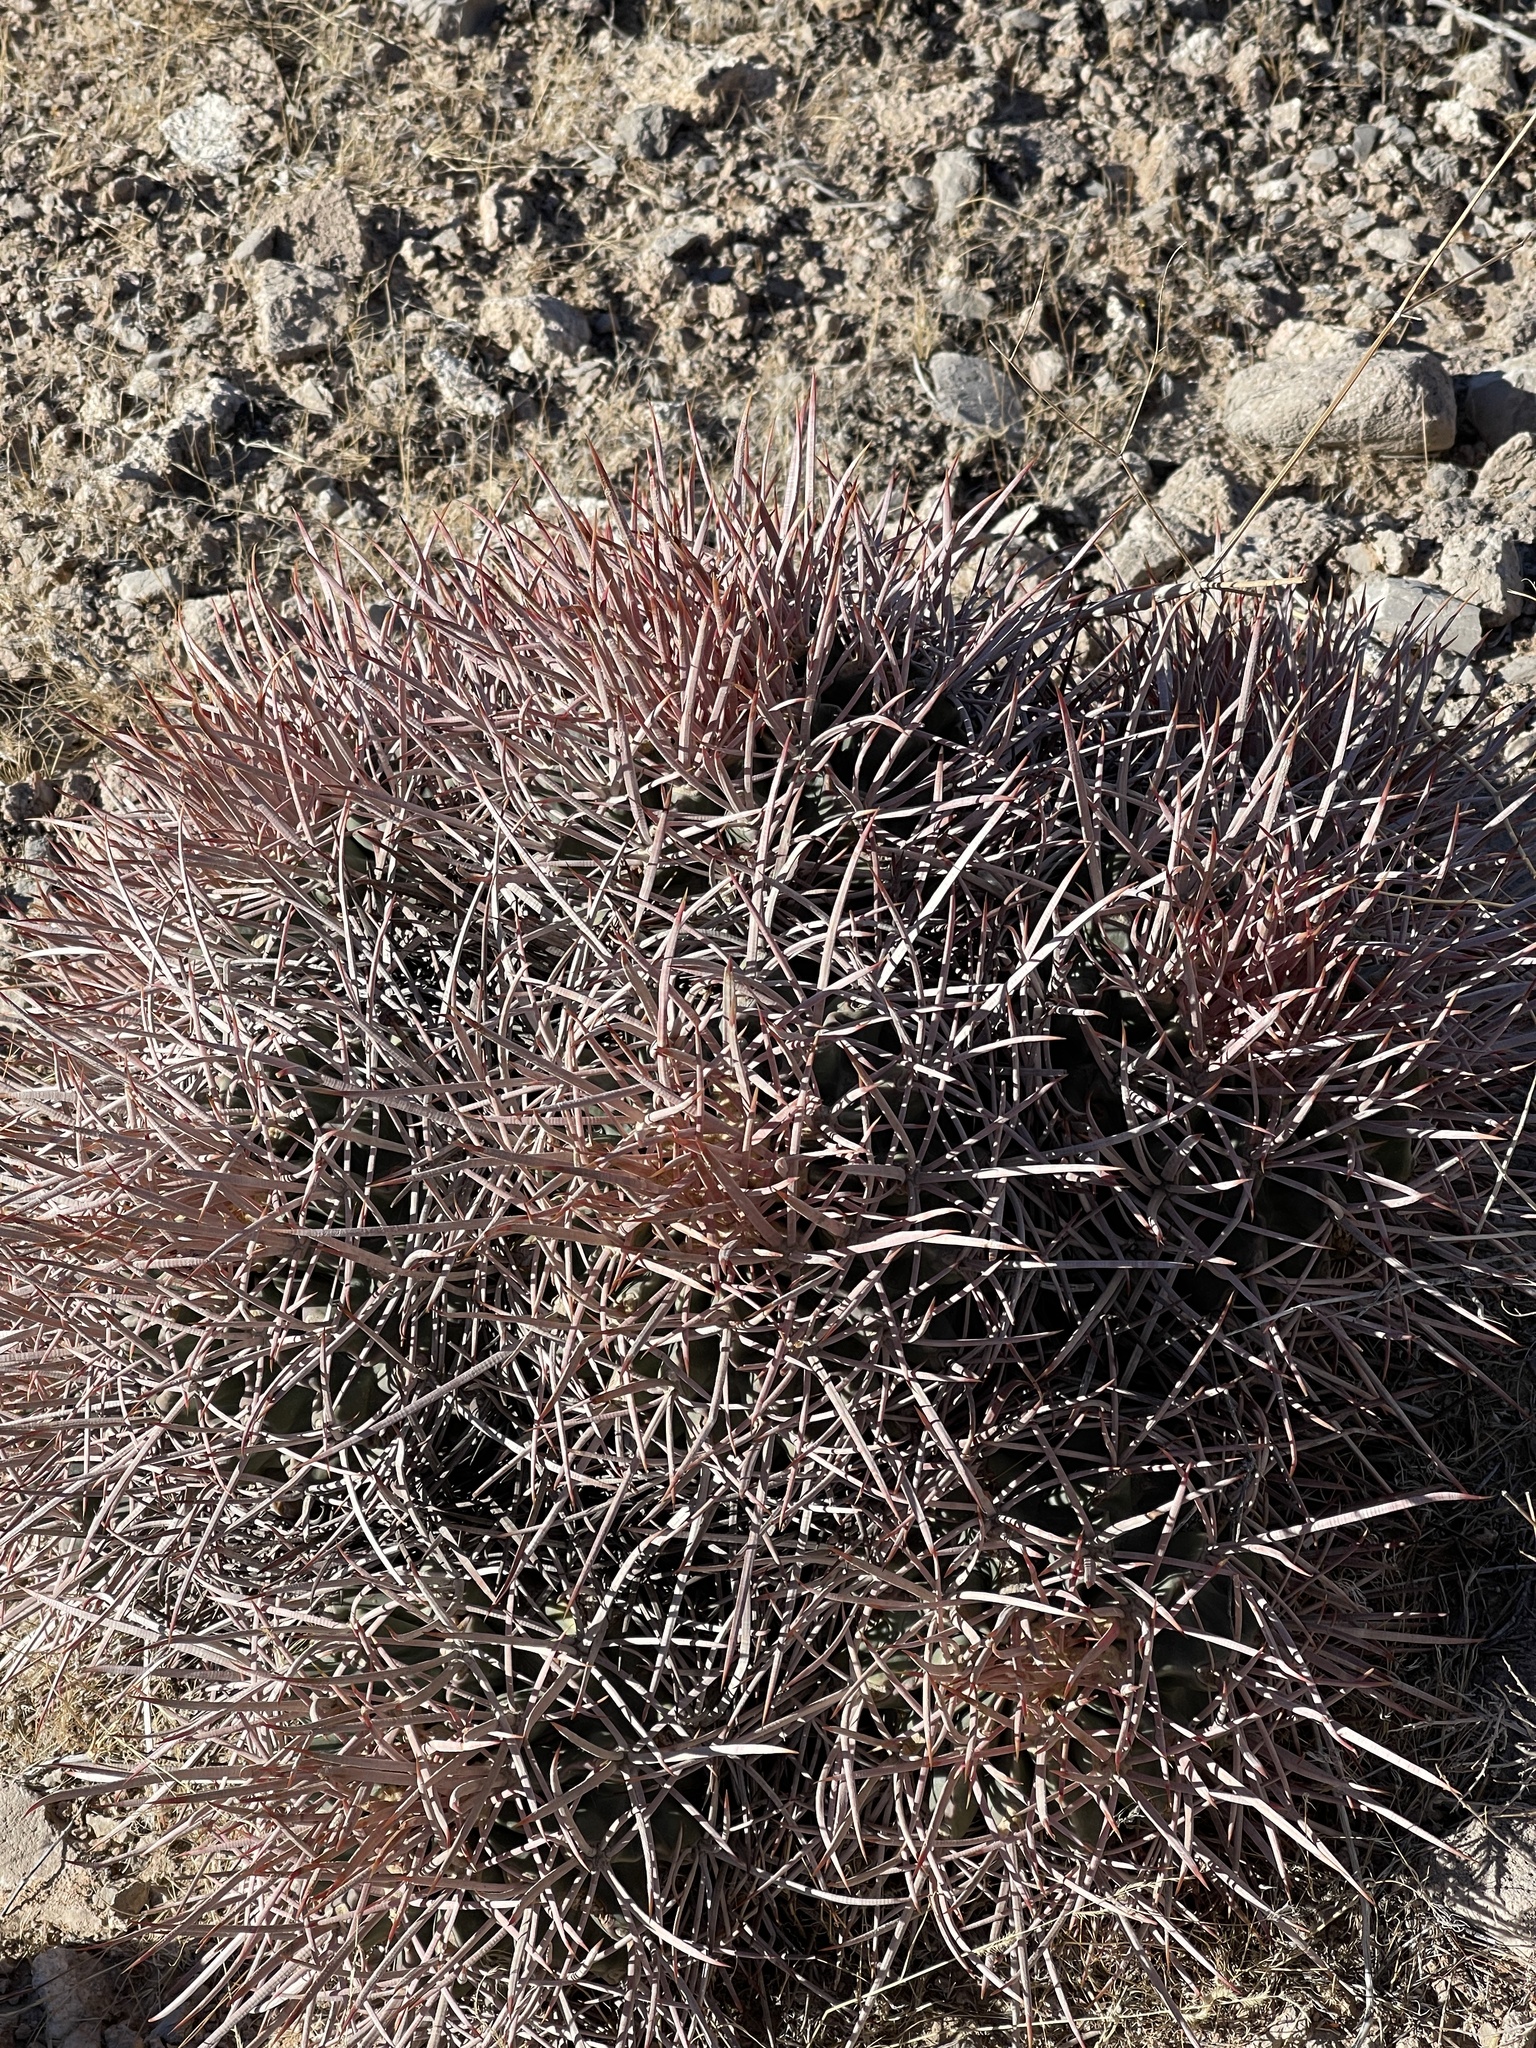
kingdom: Plantae
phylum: Tracheophyta
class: Magnoliopsida
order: Caryophyllales
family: Cactaceae
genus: Echinocactus
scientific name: Echinocactus polycephalus
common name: Cottontop cactus
